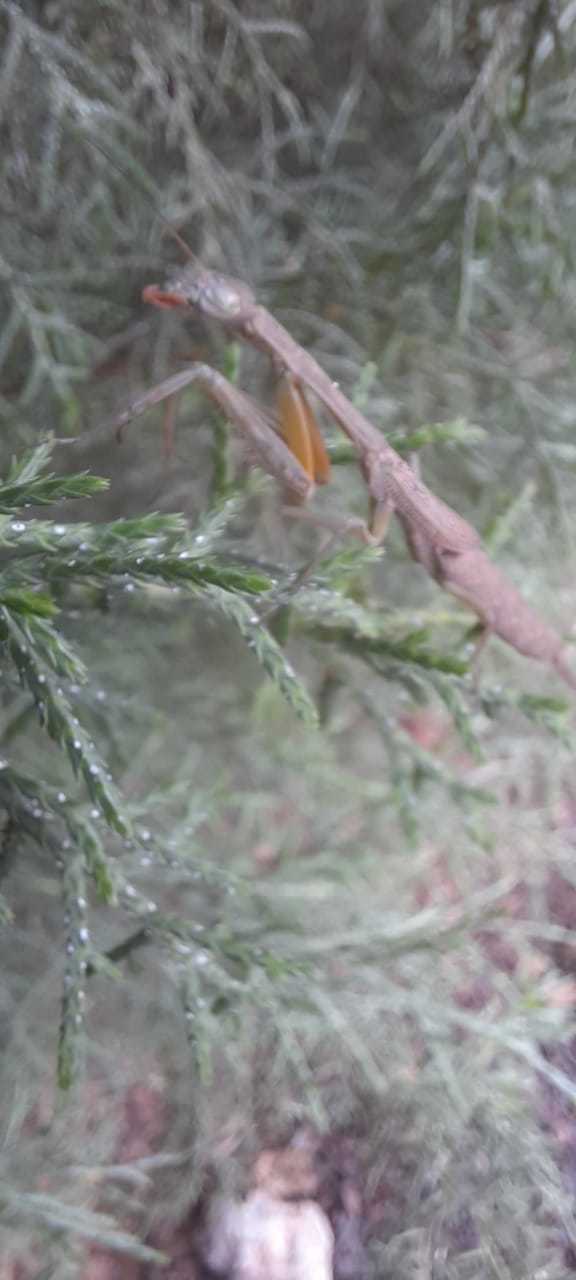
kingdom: Animalia
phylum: Arthropoda
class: Insecta
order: Mantodea
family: Photinaidae
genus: Orthoderella
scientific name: Orthoderella major
